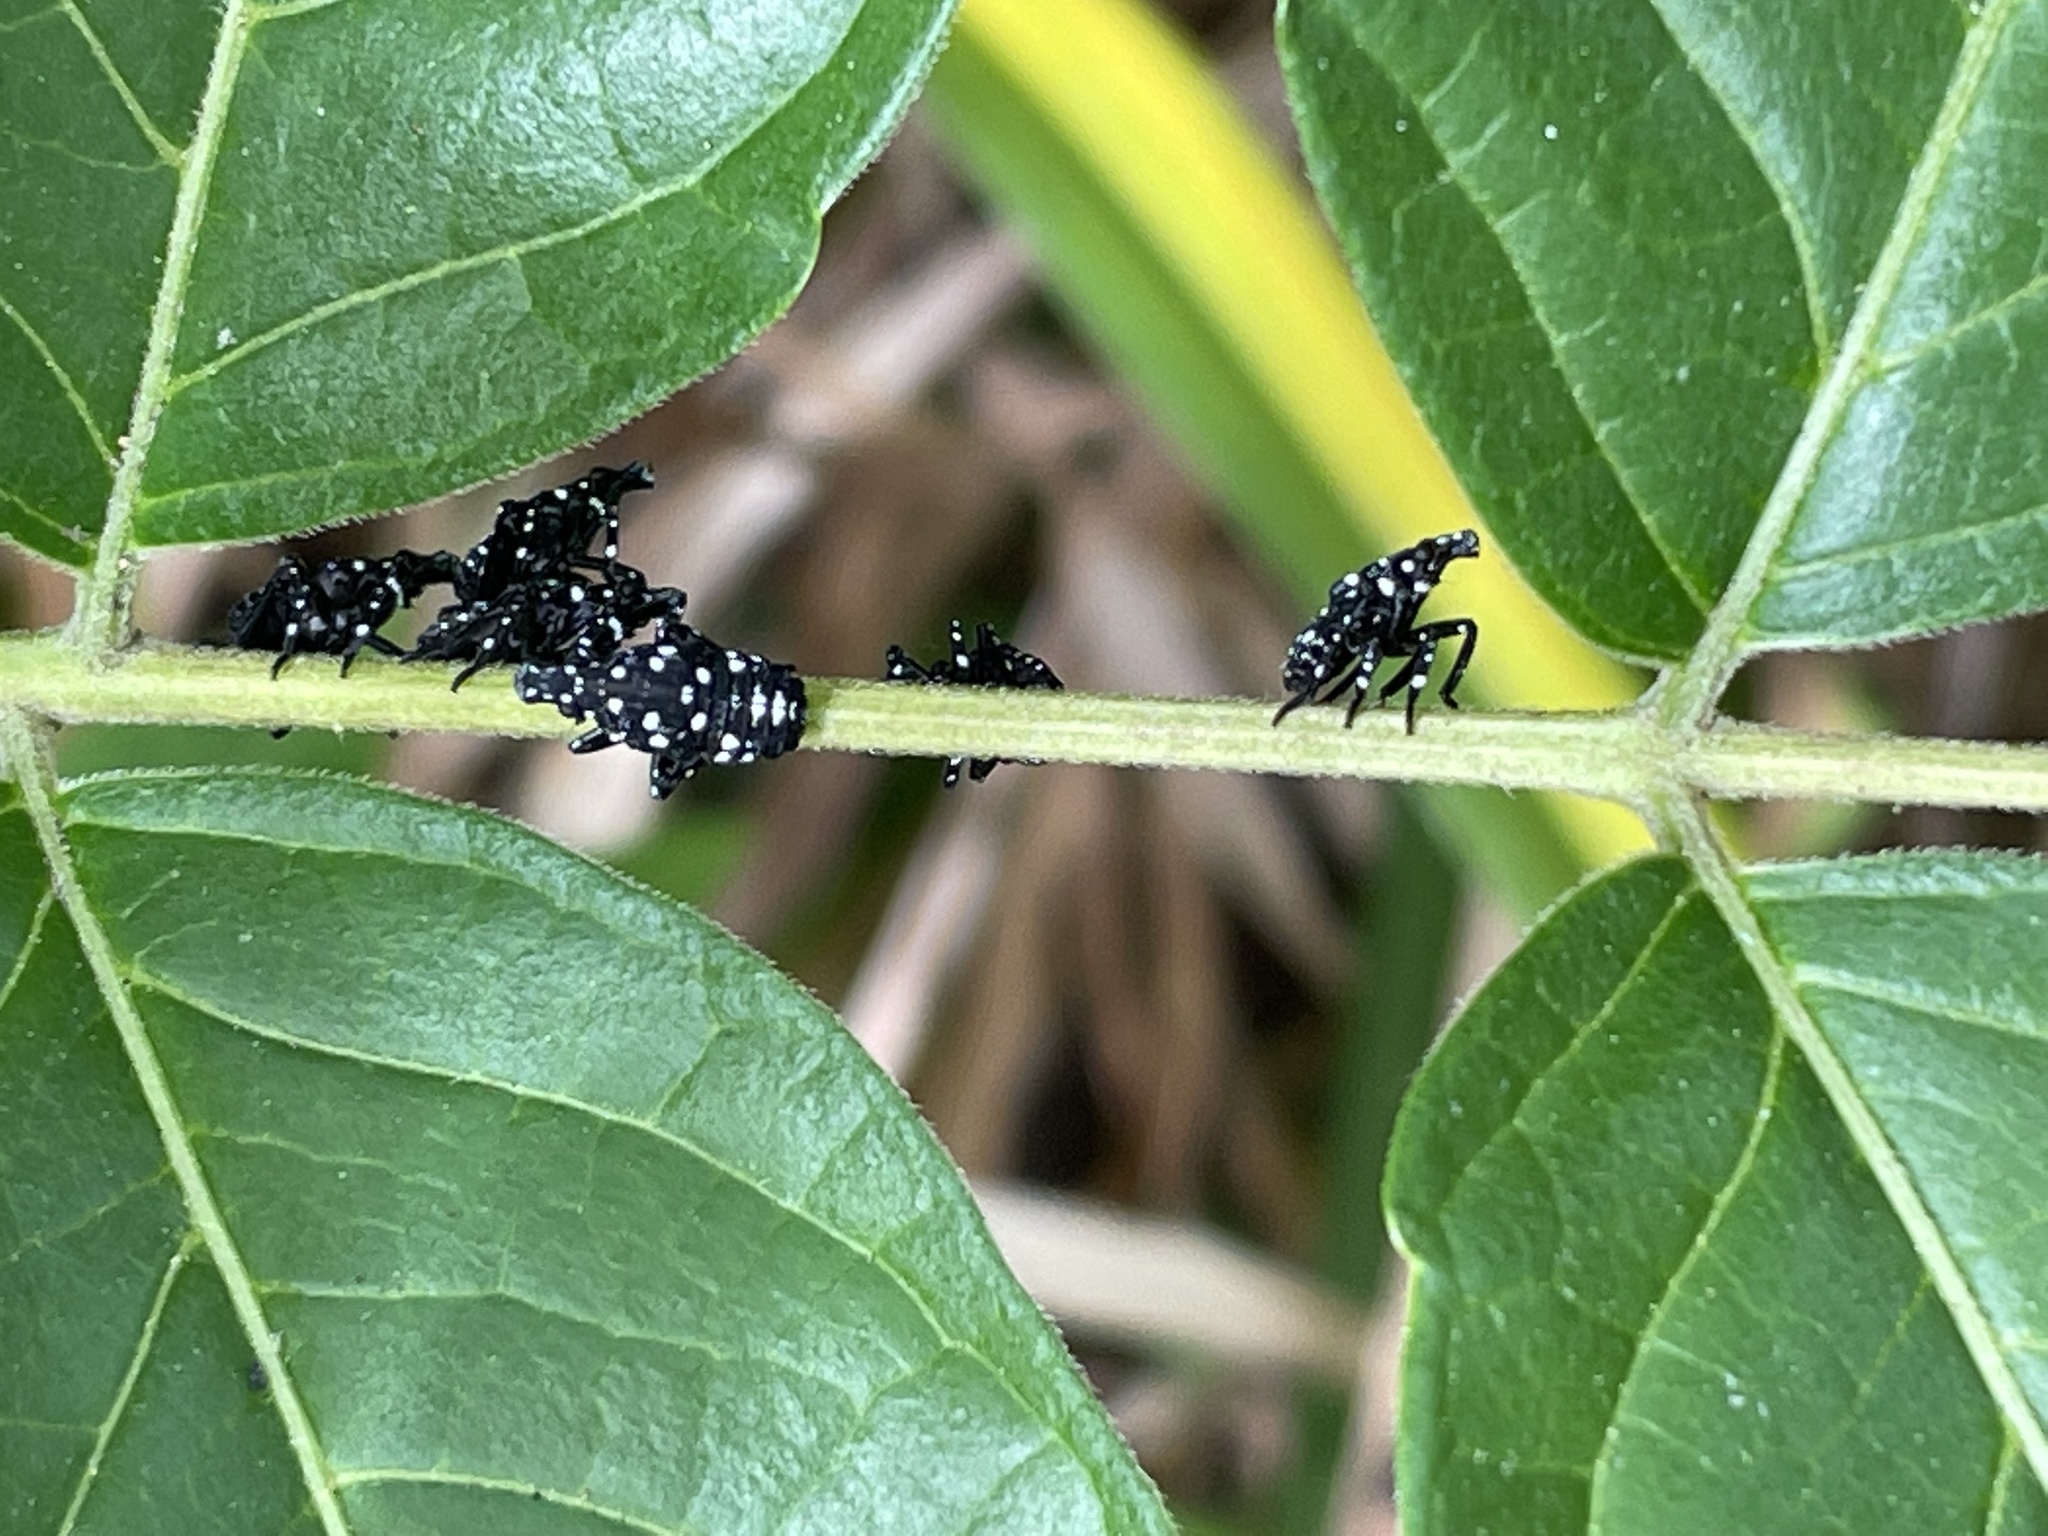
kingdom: Animalia
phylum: Arthropoda
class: Insecta
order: Hemiptera
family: Fulgoridae
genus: Lycorma
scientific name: Lycorma delicatula
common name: Spotted lanternfly
